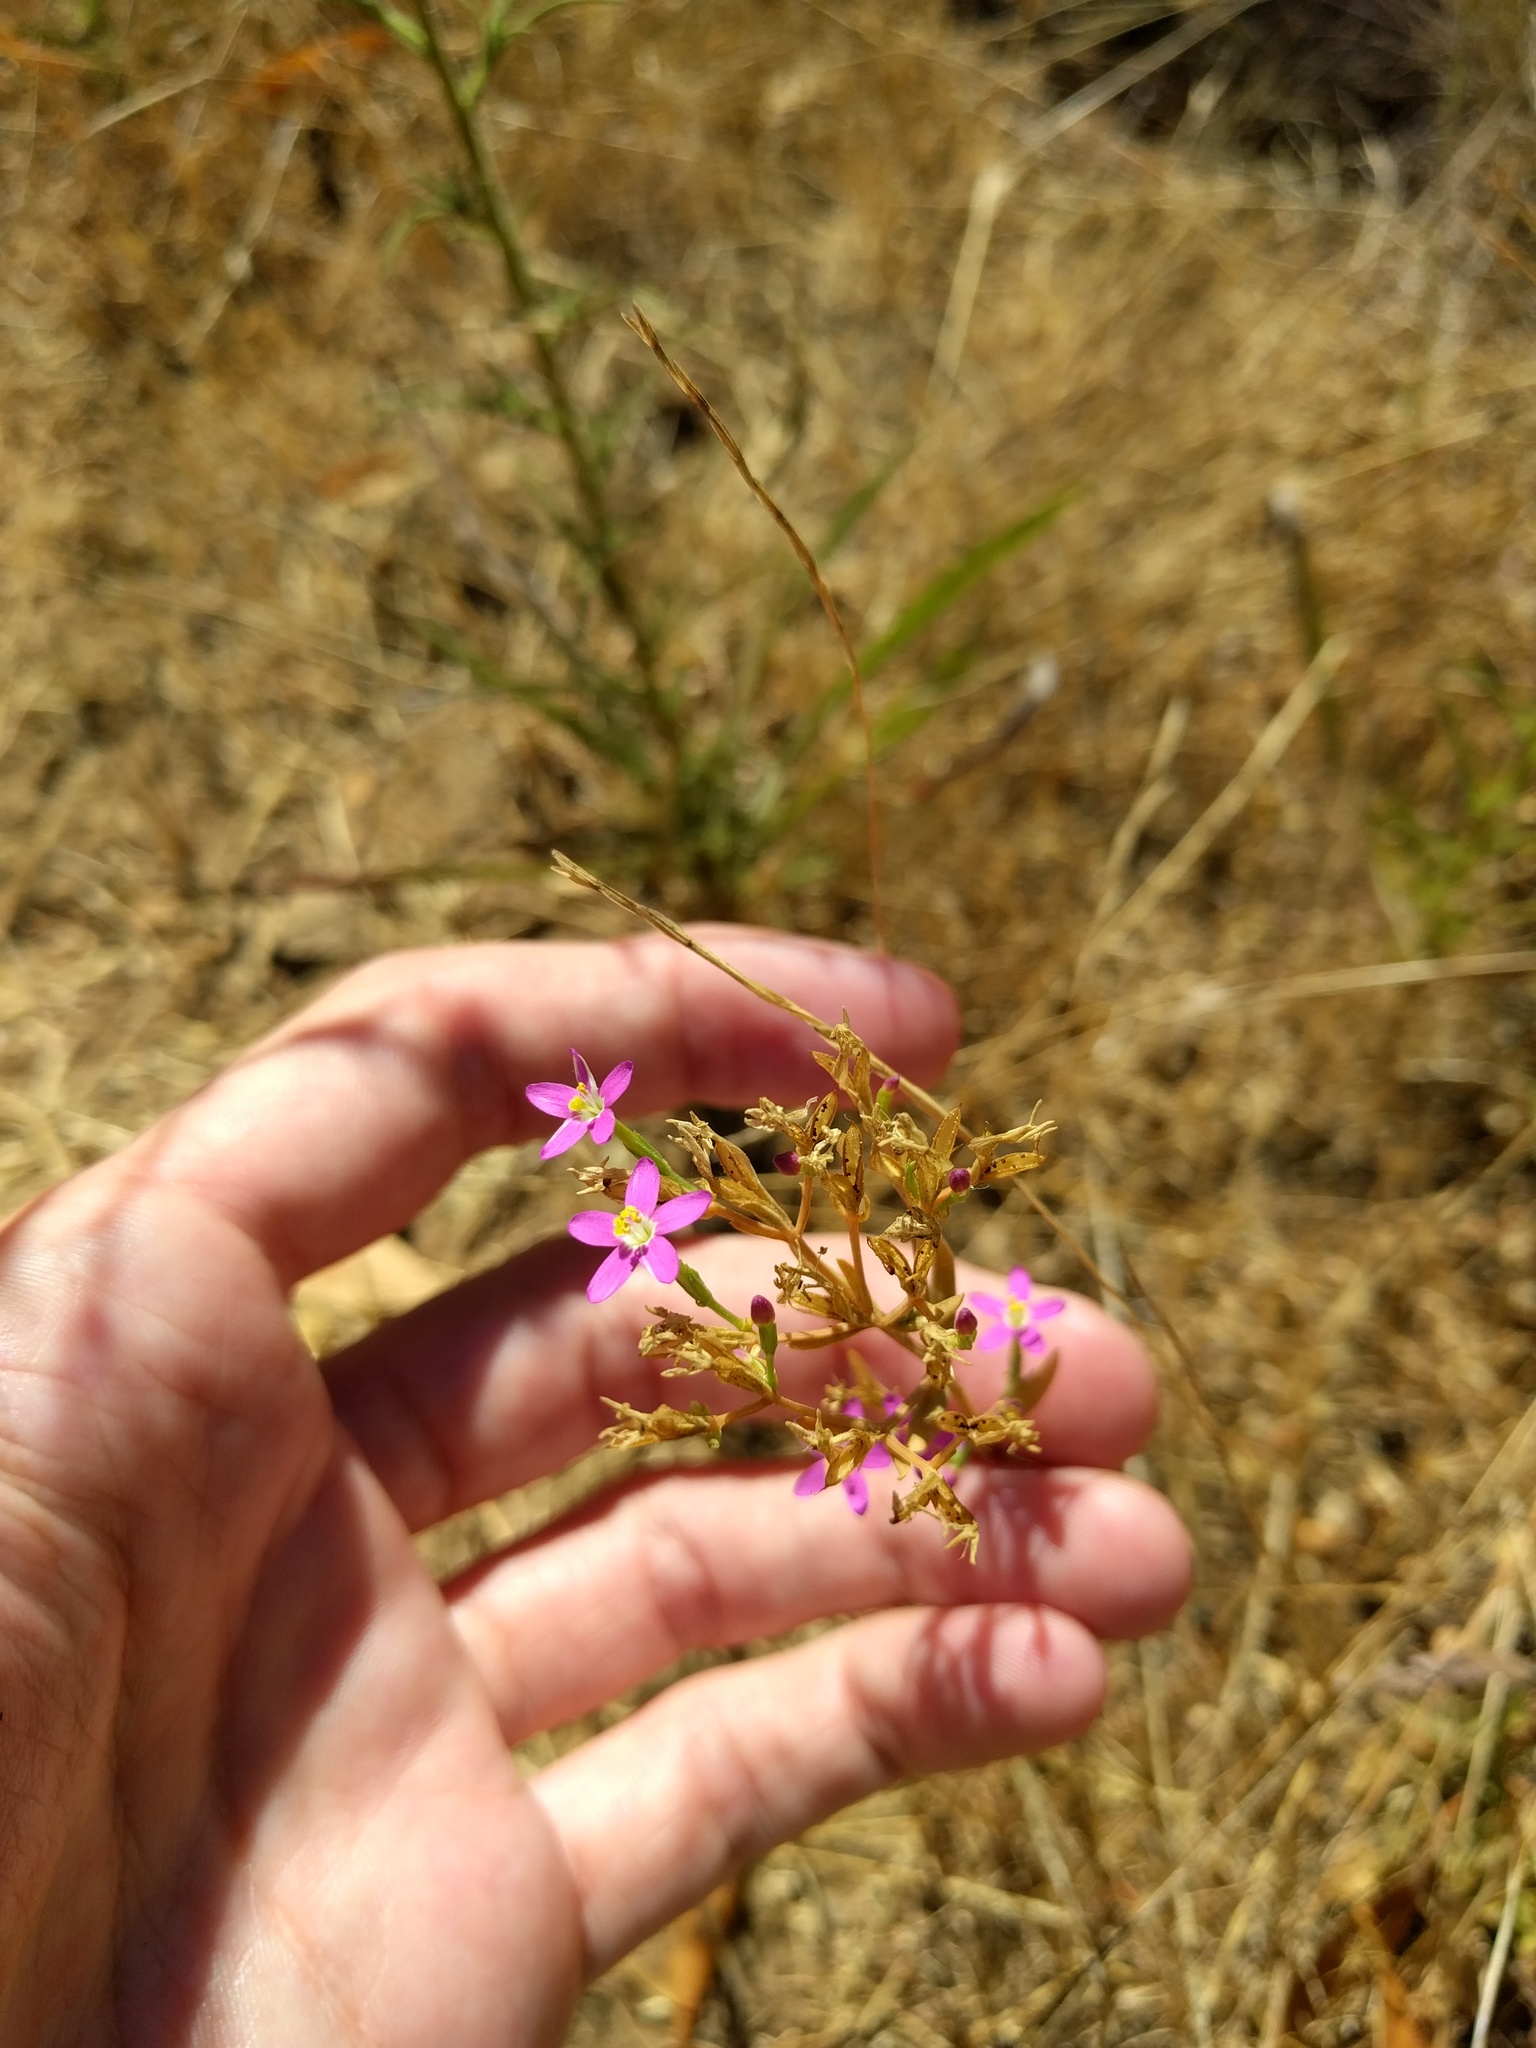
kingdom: Plantae
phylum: Tracheophyta
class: Magnoliopsida
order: Gentianales
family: Gentianaceae
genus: Zeltnera
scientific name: Zeltnera muhlenbergii
